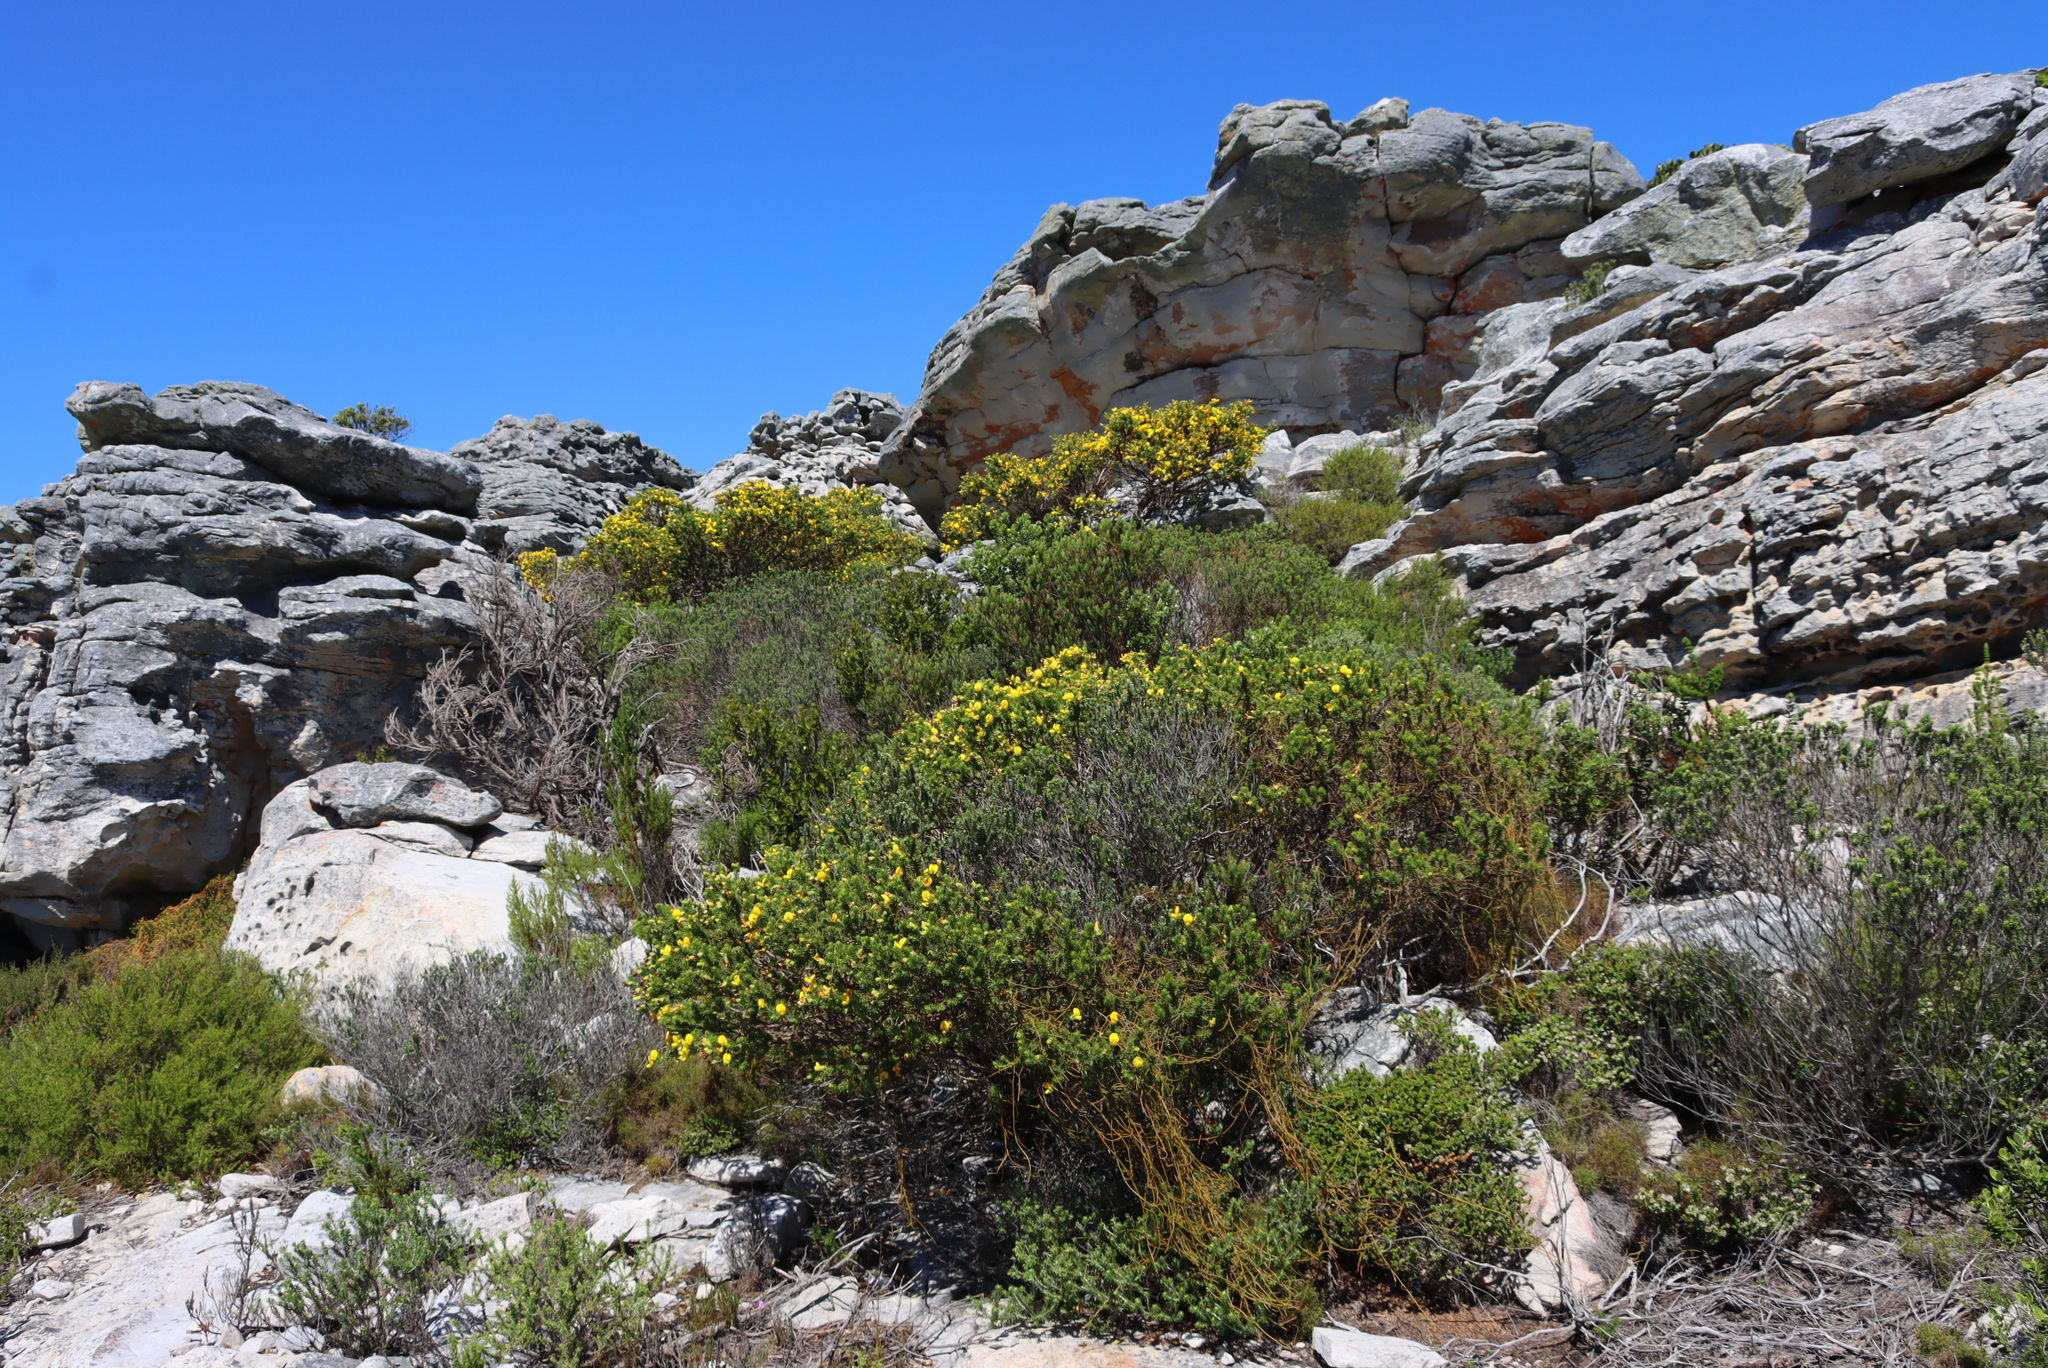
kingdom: Plantae
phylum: Tracheophyta
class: Magnoliopsida
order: Laurales
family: Lauraceae
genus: Cassytha
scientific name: Cassytha ciliolata
